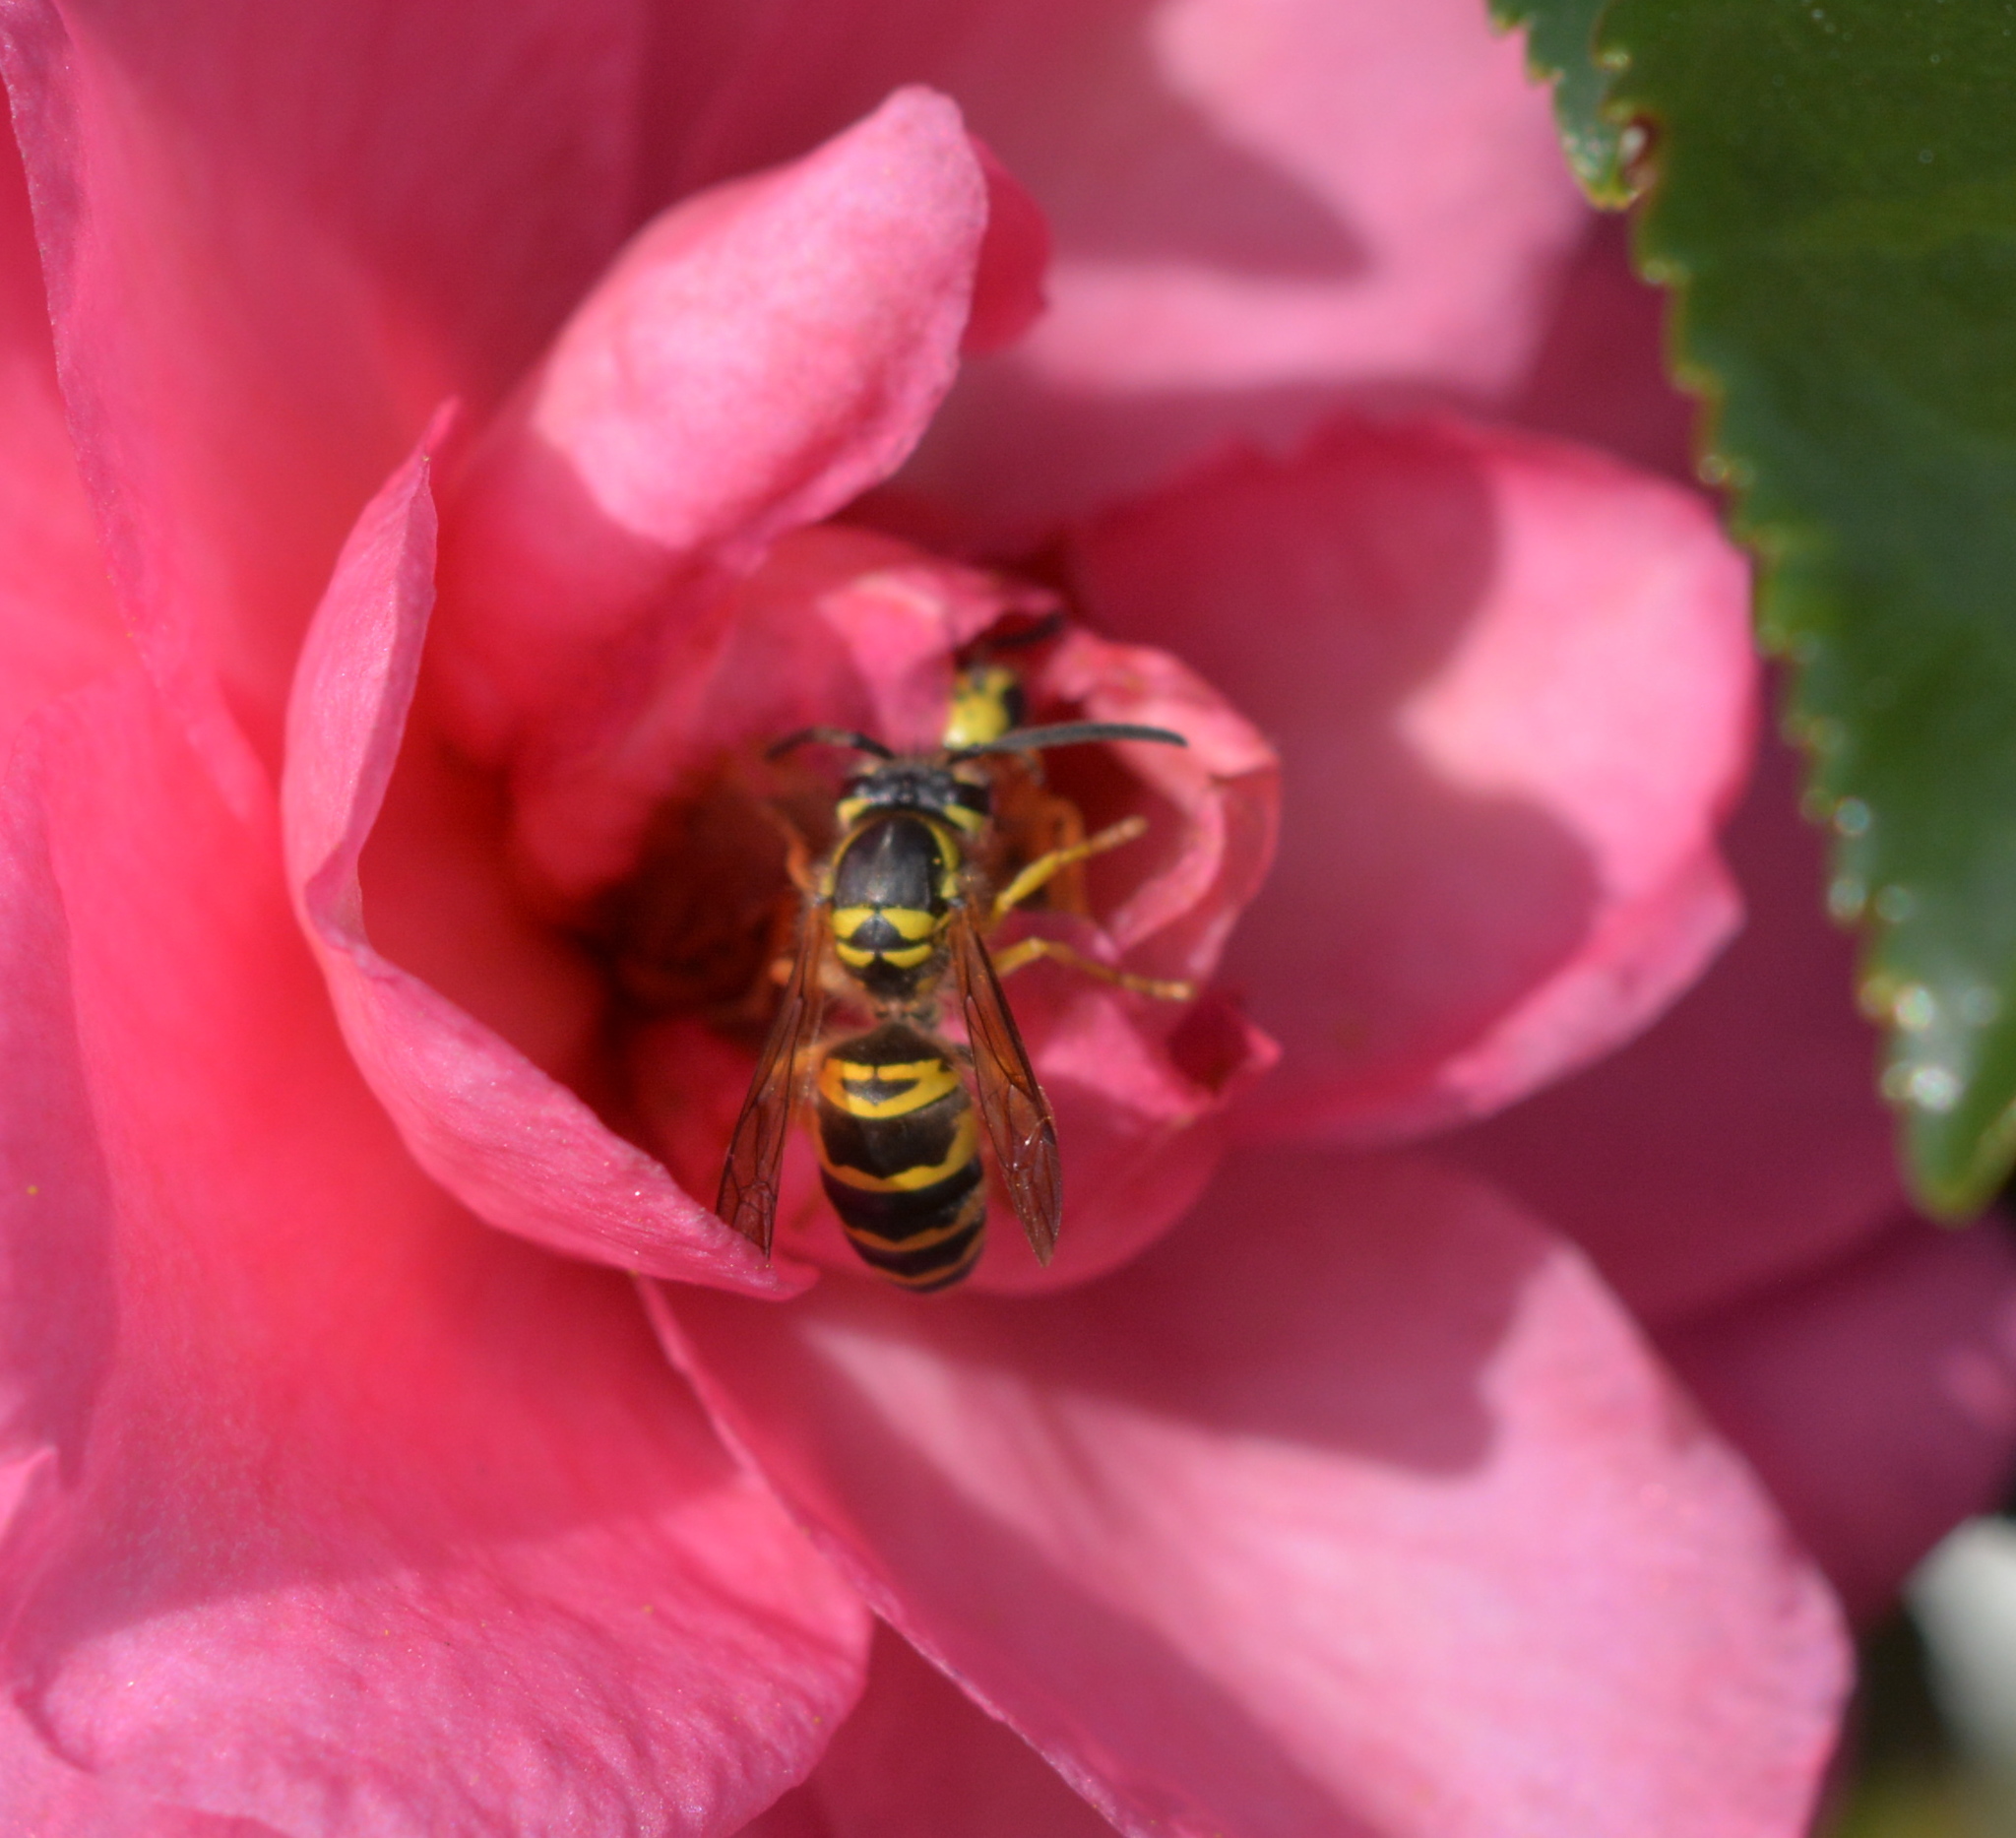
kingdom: Animalia
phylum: Arthropoda
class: Insecta
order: Hymenoptera
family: Vespidae
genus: Vespula
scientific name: Vespula maculifrons
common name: Eastern yellowjacket
